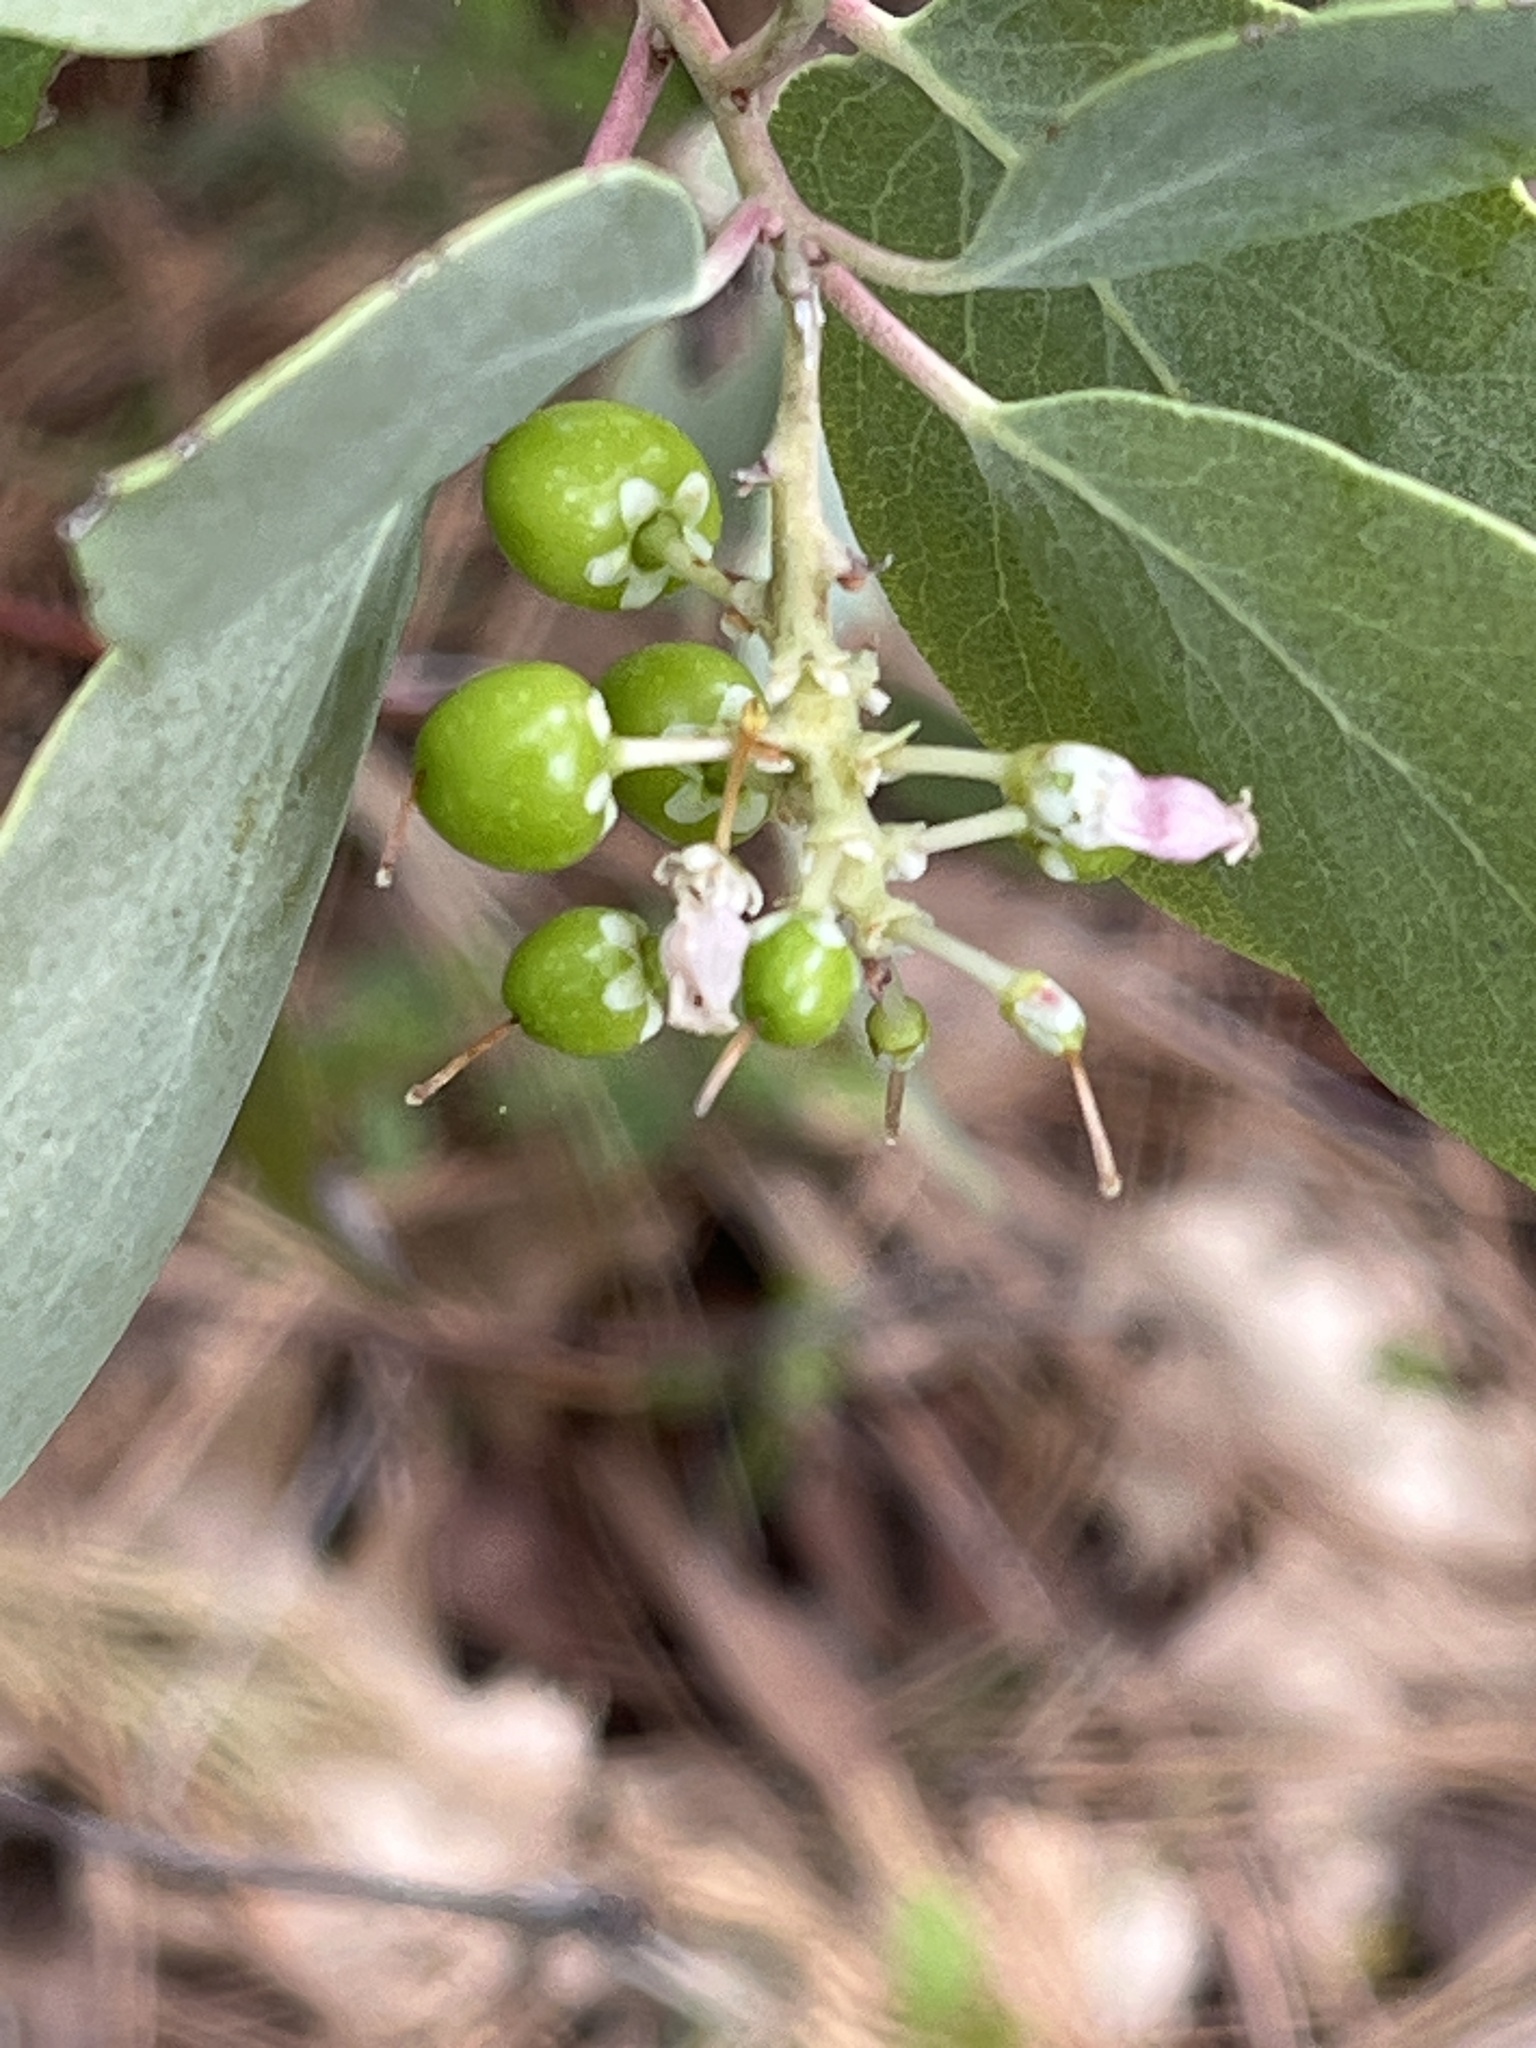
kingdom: Plantae
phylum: Tracheophyta
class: Magnoliopsida
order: Ericales
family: Ericaceae
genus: Arctostaphylos
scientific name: Arctostaphylos mewukka
